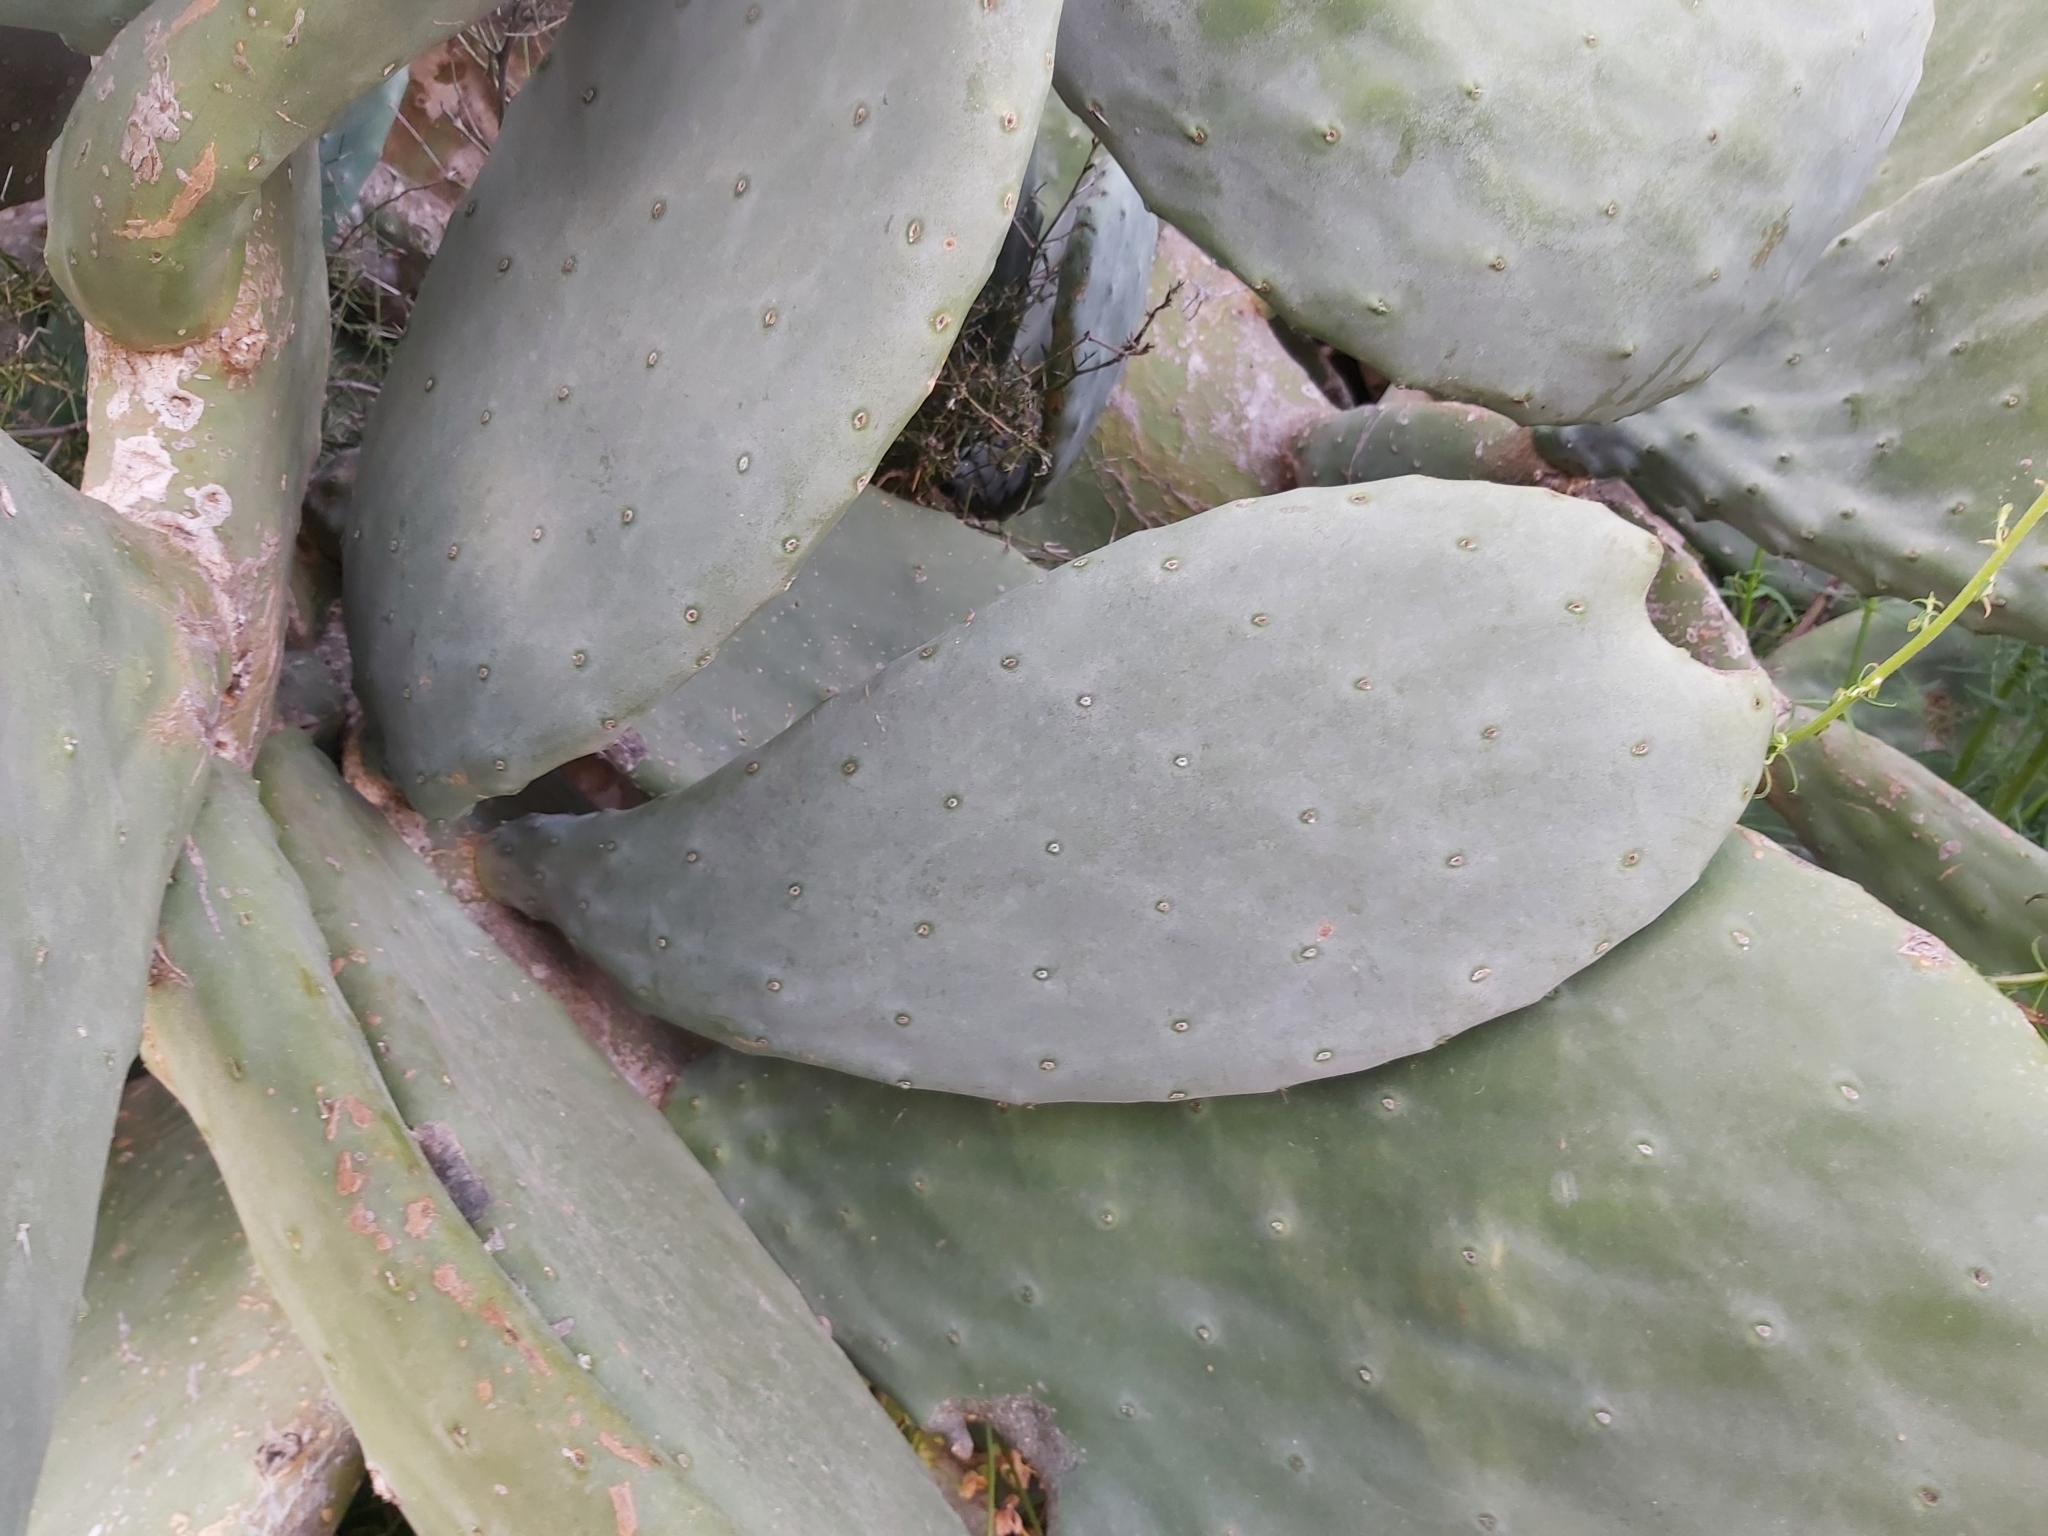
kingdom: Plantae
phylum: Tracheophyta
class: Magnoliopsida
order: Caryophyllales
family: Cactaceae
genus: Opuntia
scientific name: Opuntia ficus-indica
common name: Barbary fig
